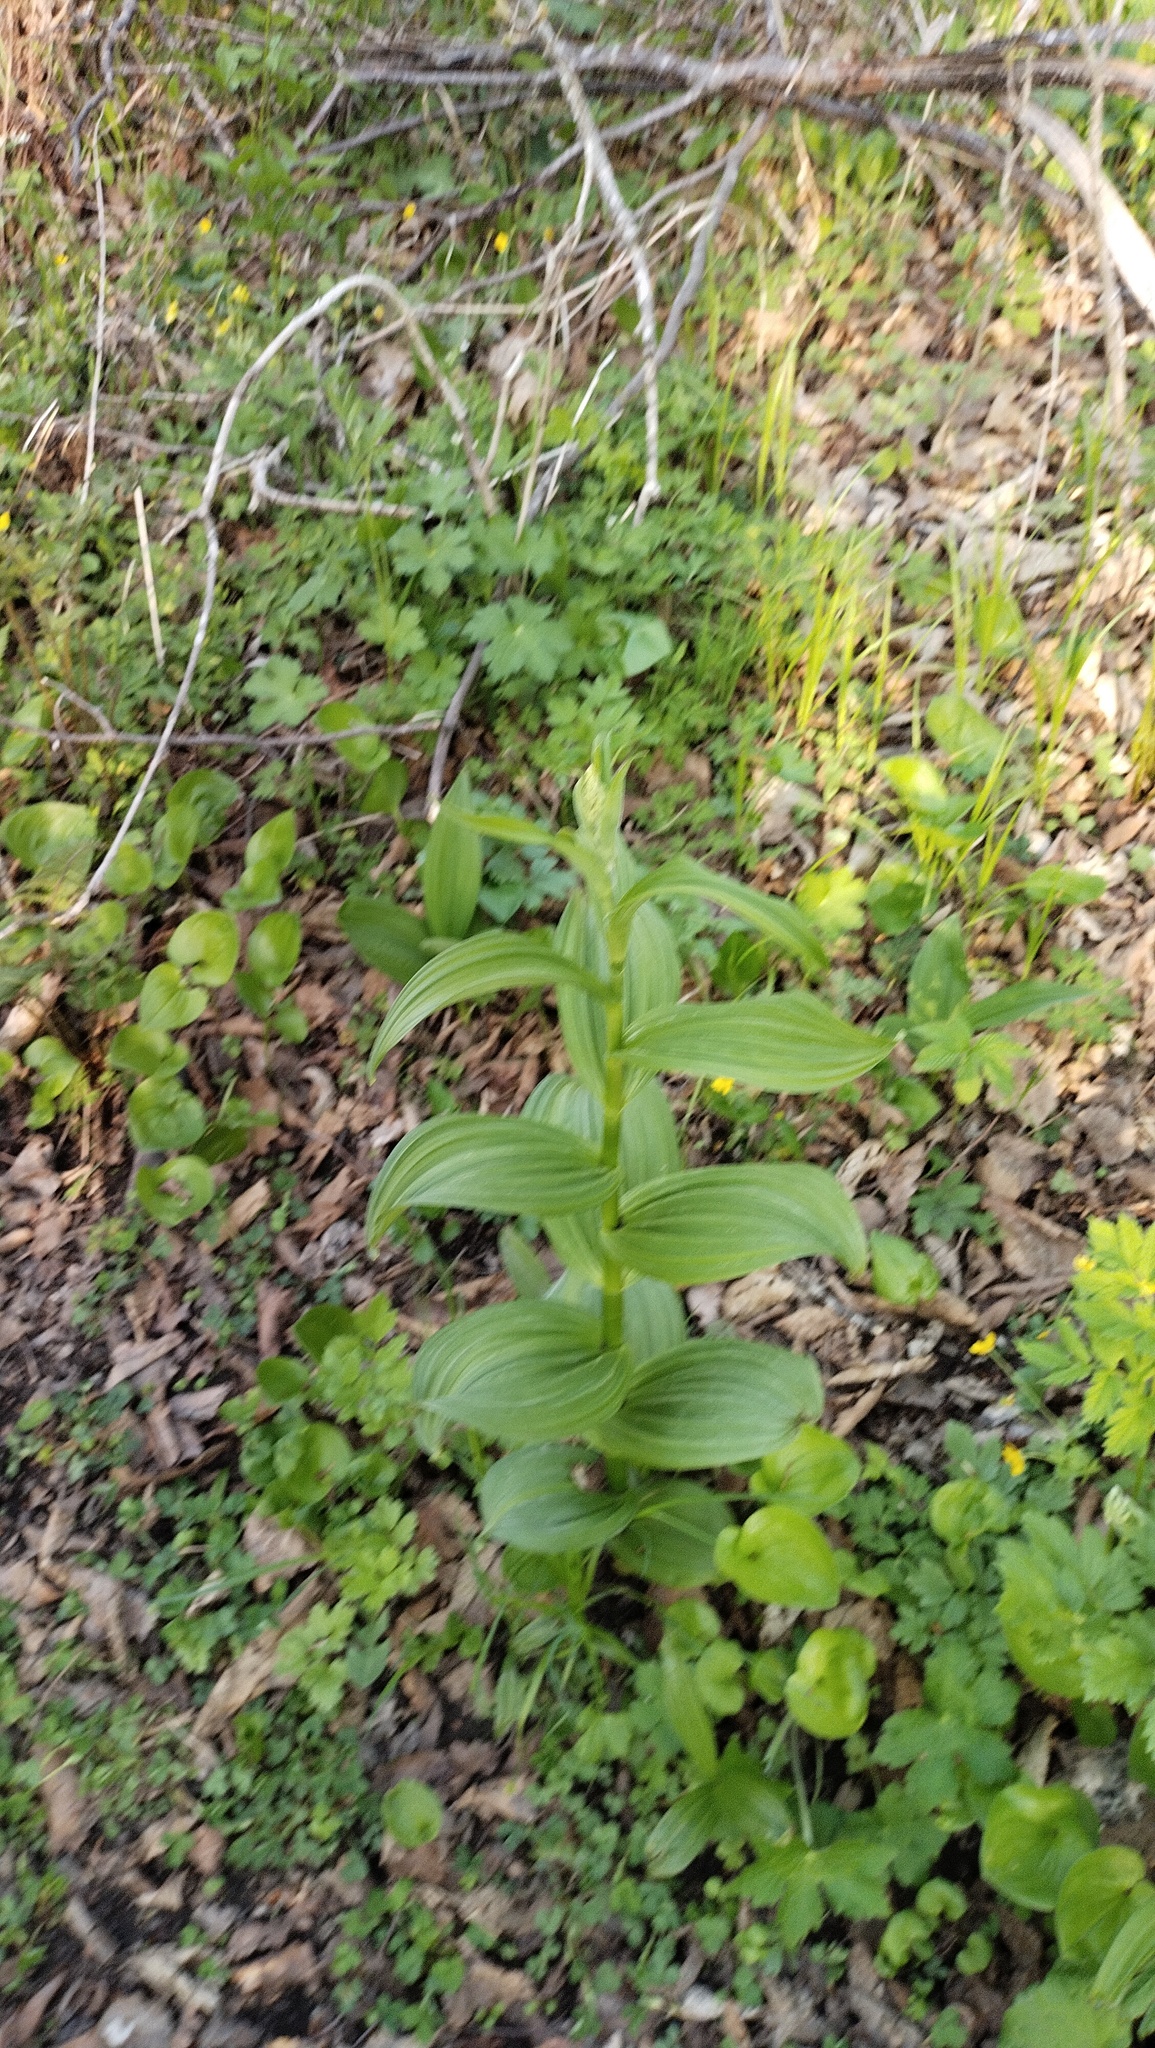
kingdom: Plantae
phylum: Tracheophyta
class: Liliopsida
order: Liliales
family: Melanthiaceae
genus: Veratrum
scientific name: Veratrum dahuricum
